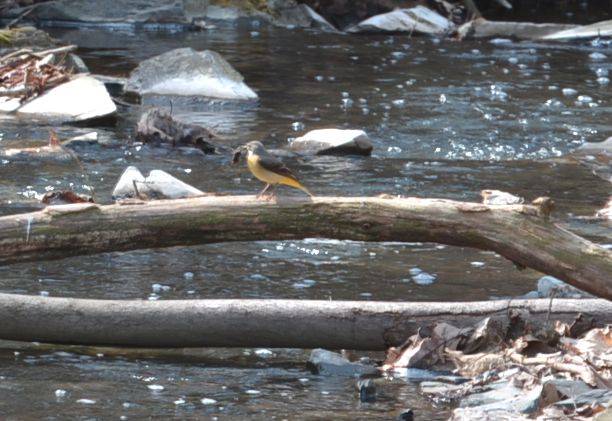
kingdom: Animalia
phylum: Chordata
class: Aves
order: Passeriformes
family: Motacillidae
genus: Motacilla
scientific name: Motacilla cinerea
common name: Grey wagtail
